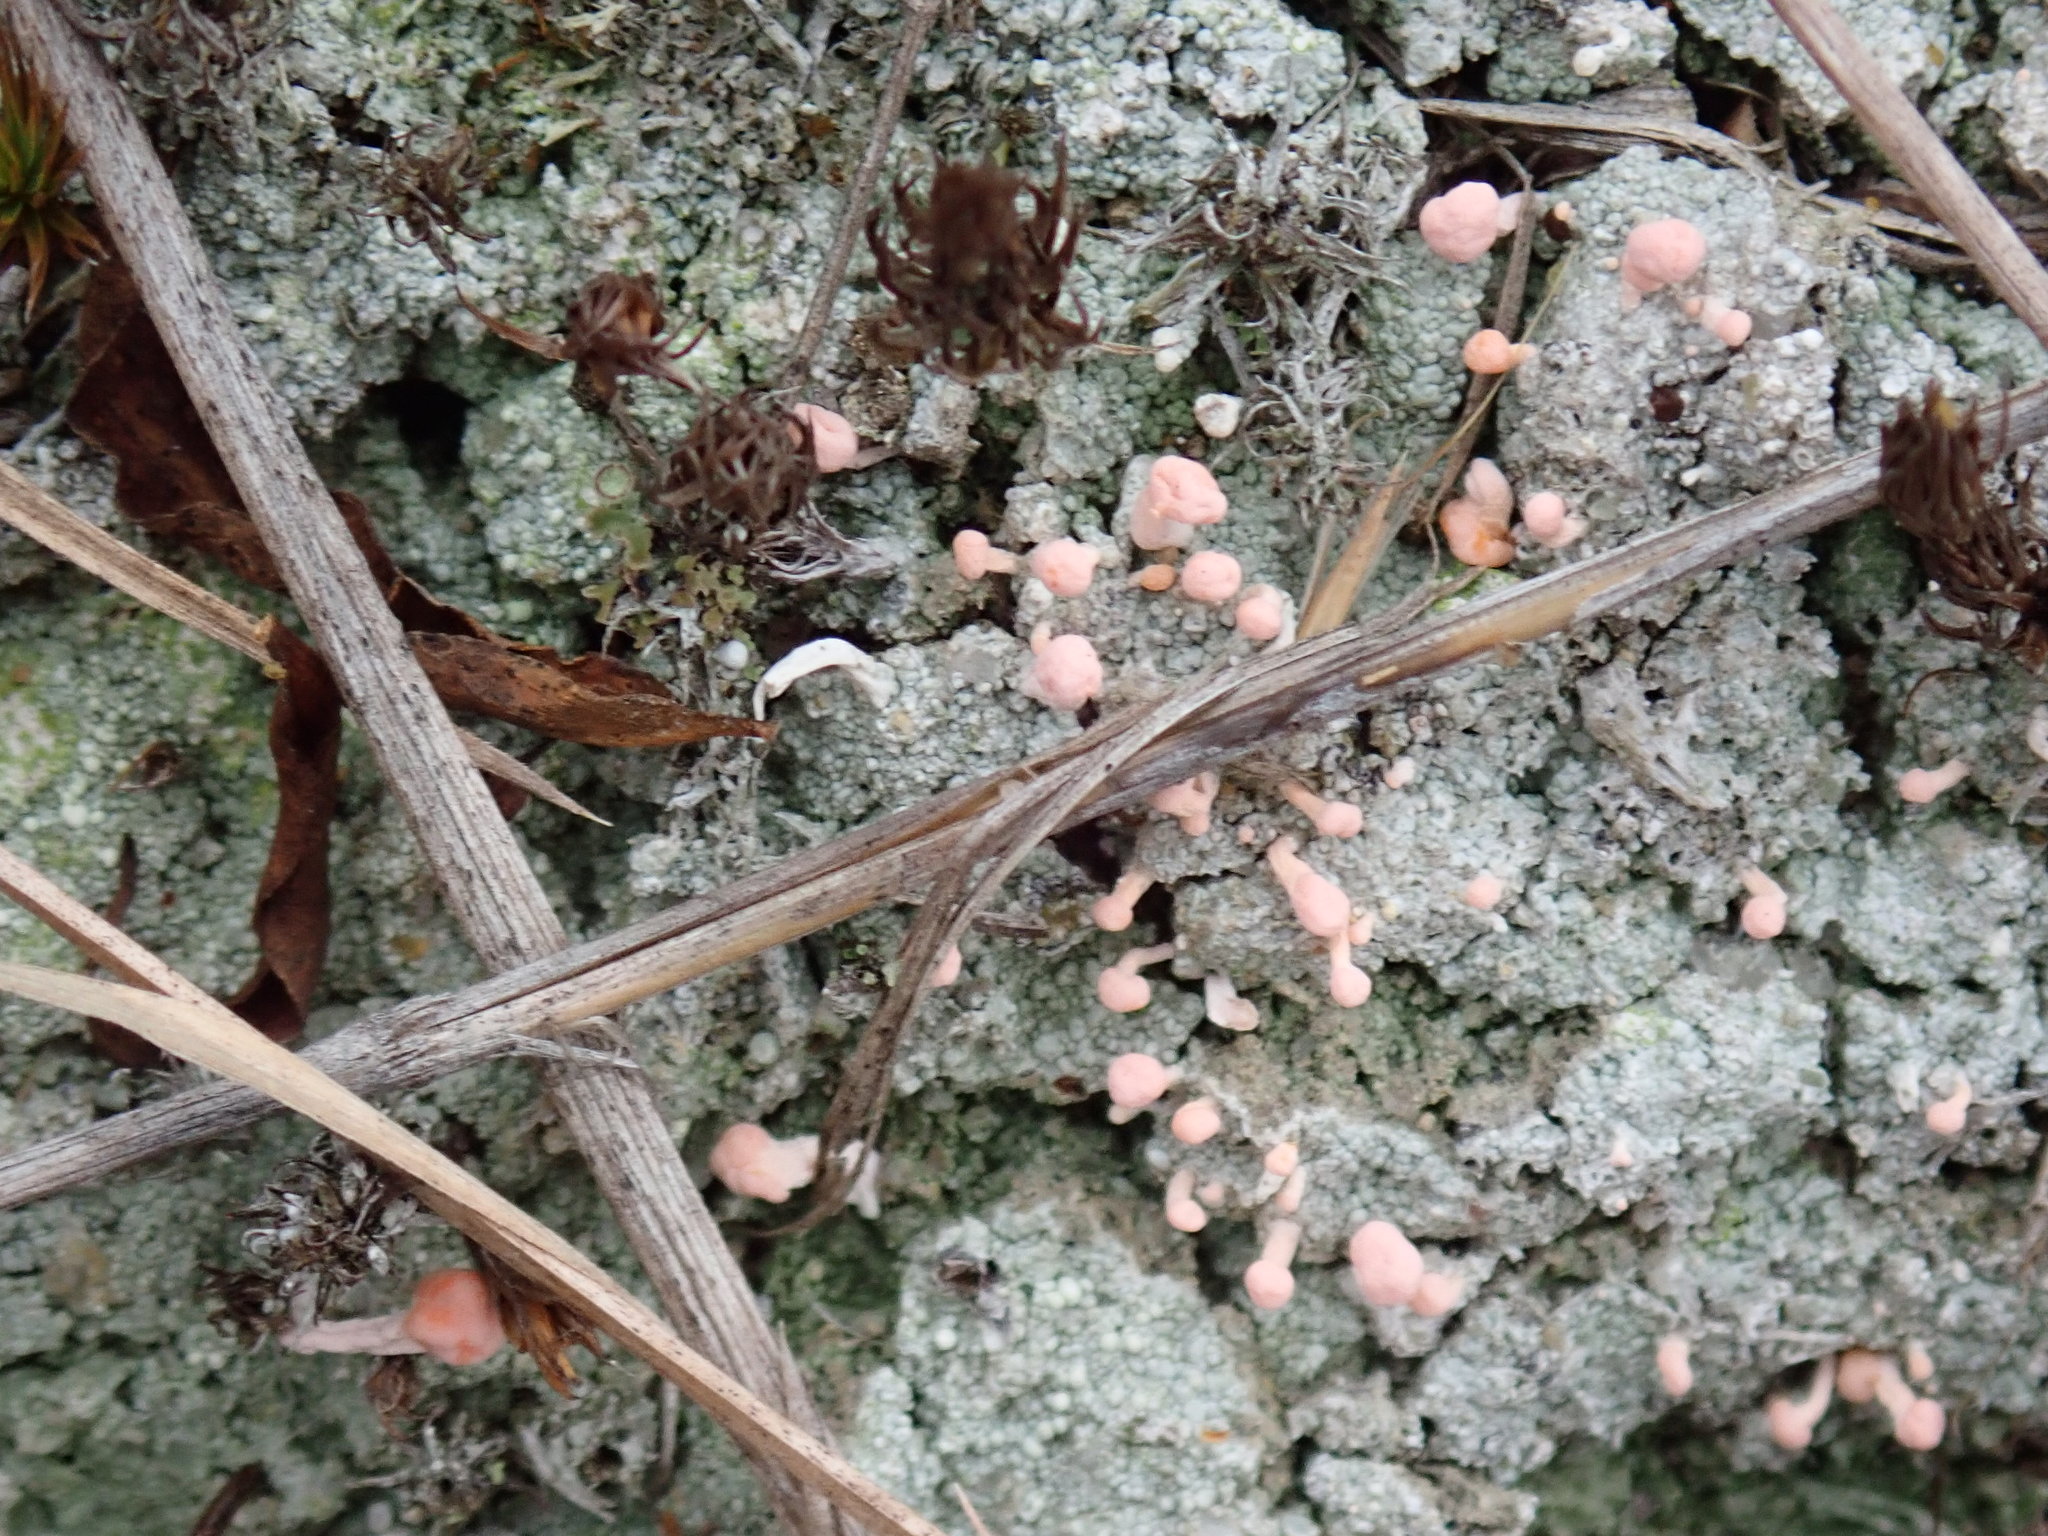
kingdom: Fungi
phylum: Ascomycota
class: Lecanoromycetes
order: Pertusariales
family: Icmadophilaceae
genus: Dibaeis
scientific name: Dibaeis baeomyces
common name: Pink earth lichen
